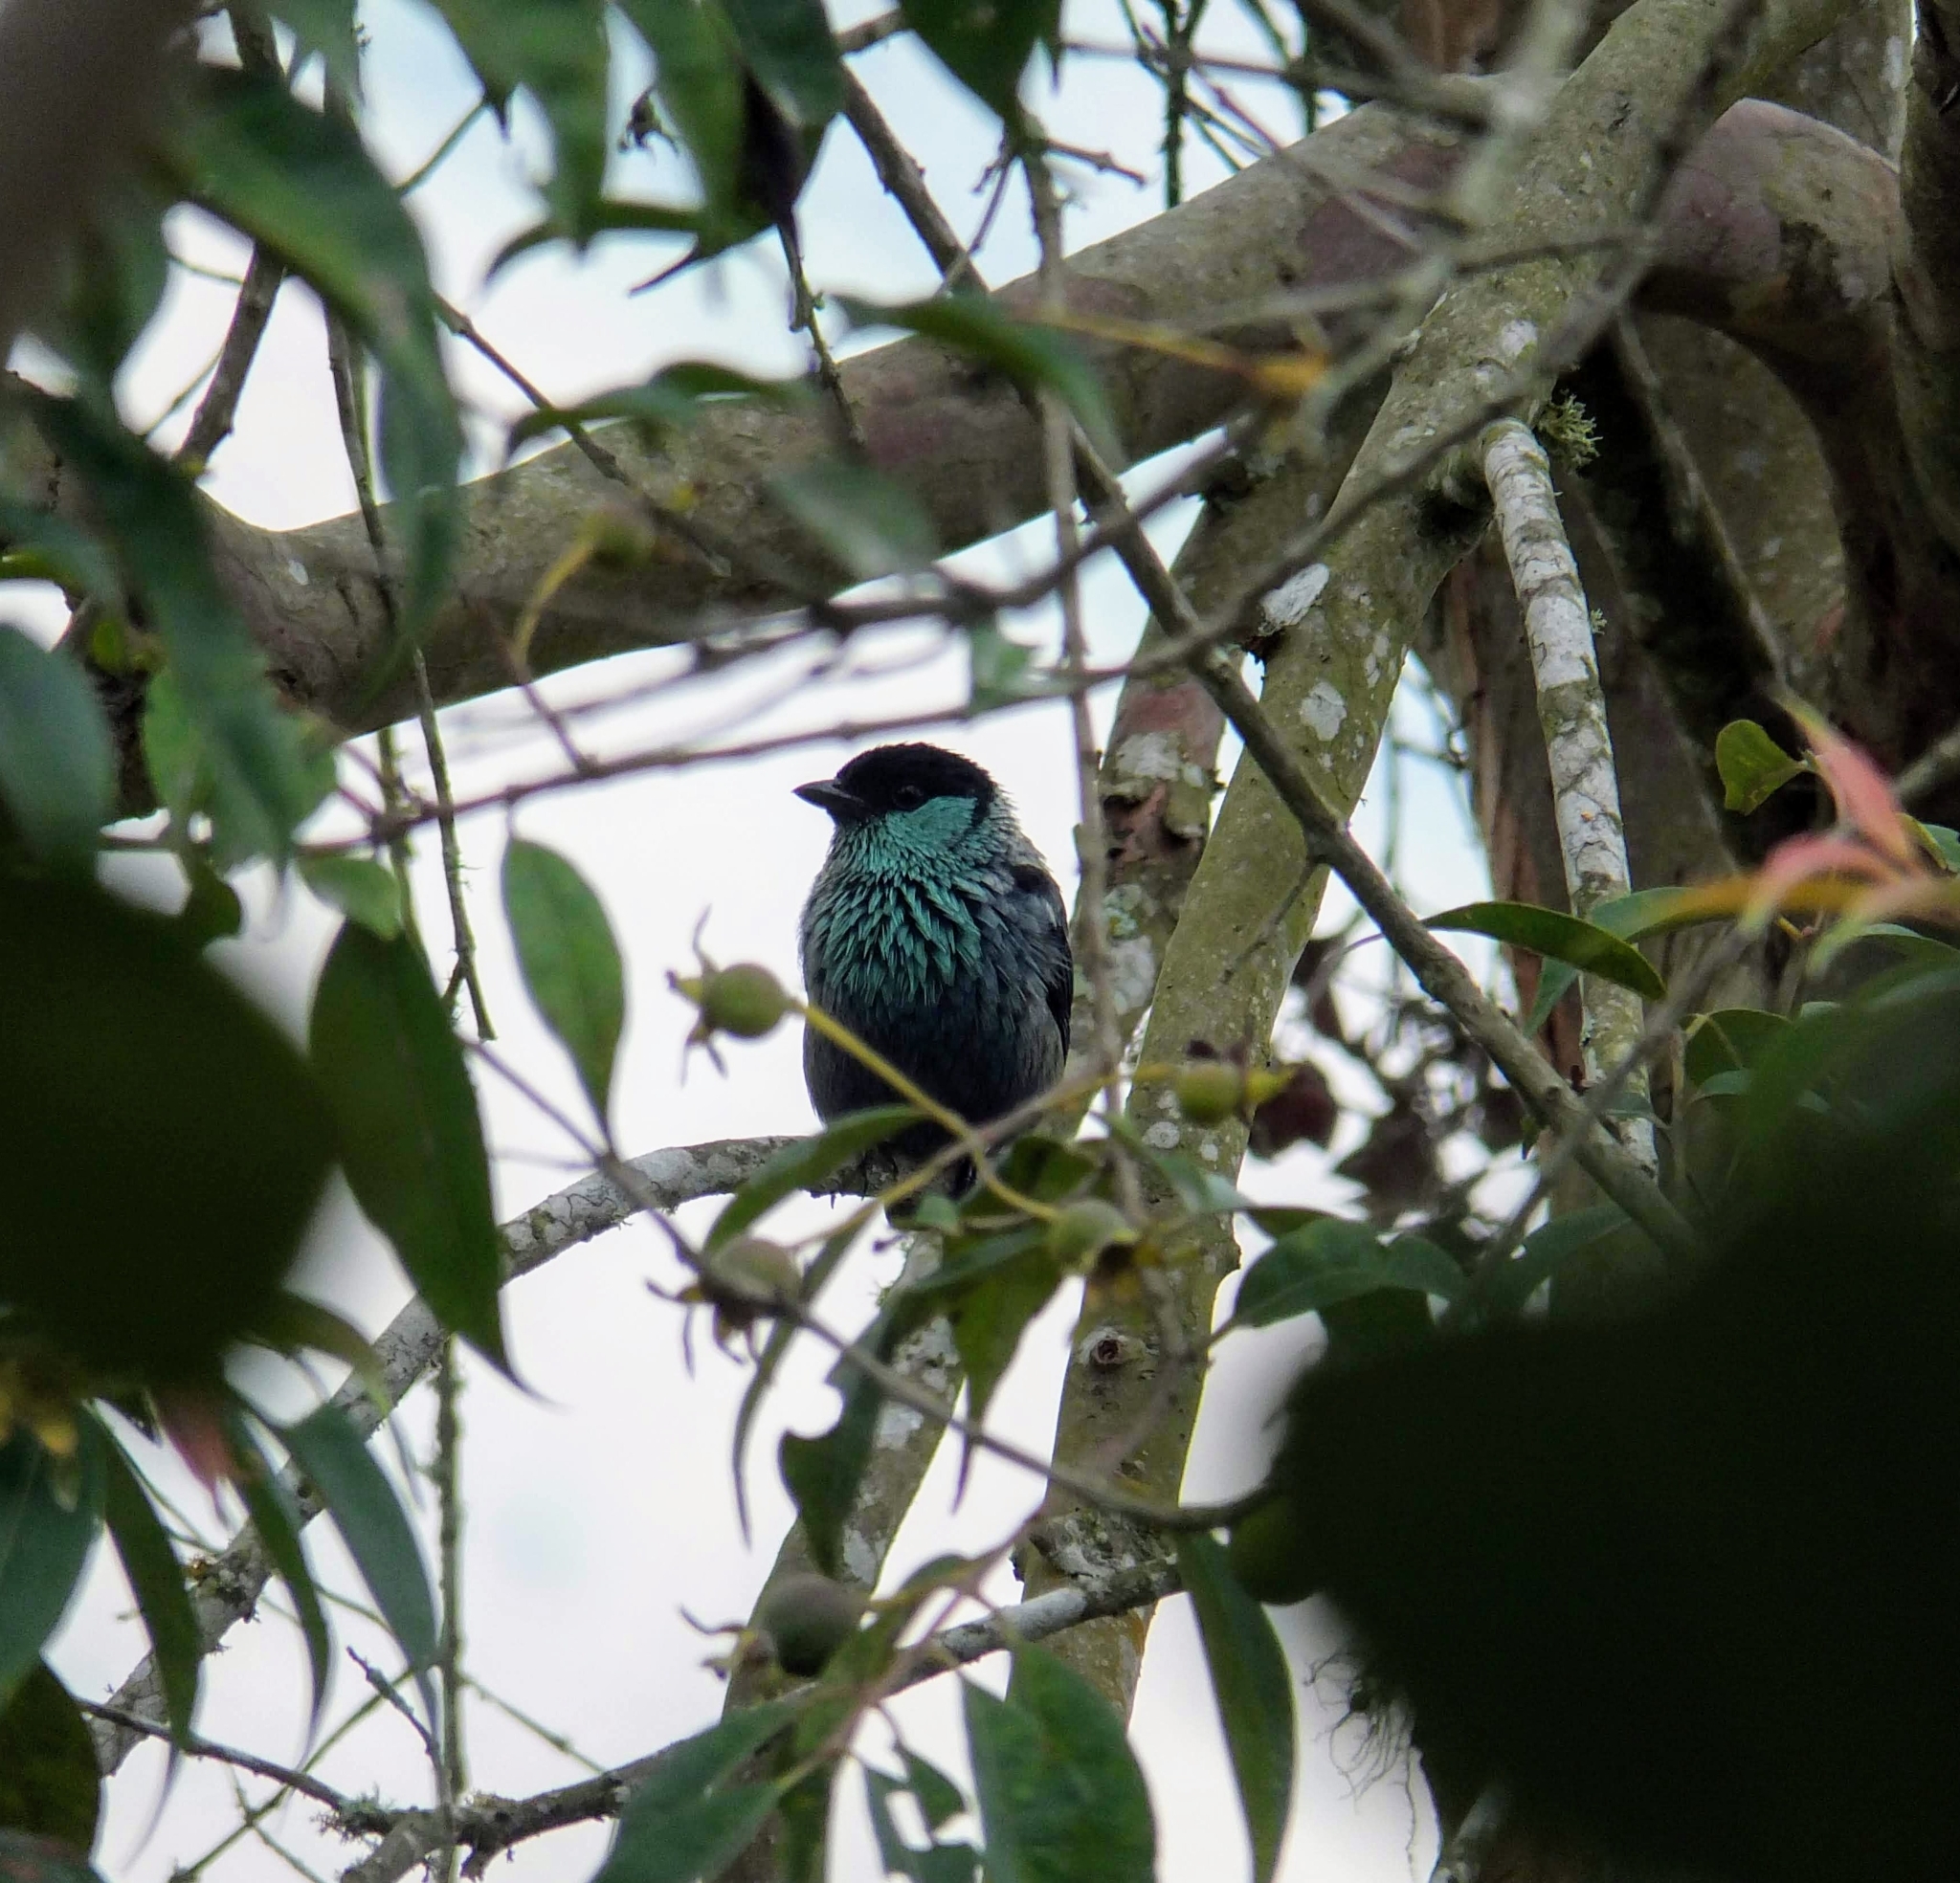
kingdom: Animalia
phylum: Chordata
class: Aves
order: Passeriformes
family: Thraupidae
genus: Stilpnia
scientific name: Stilpnia heinei
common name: Black-capped tanager
